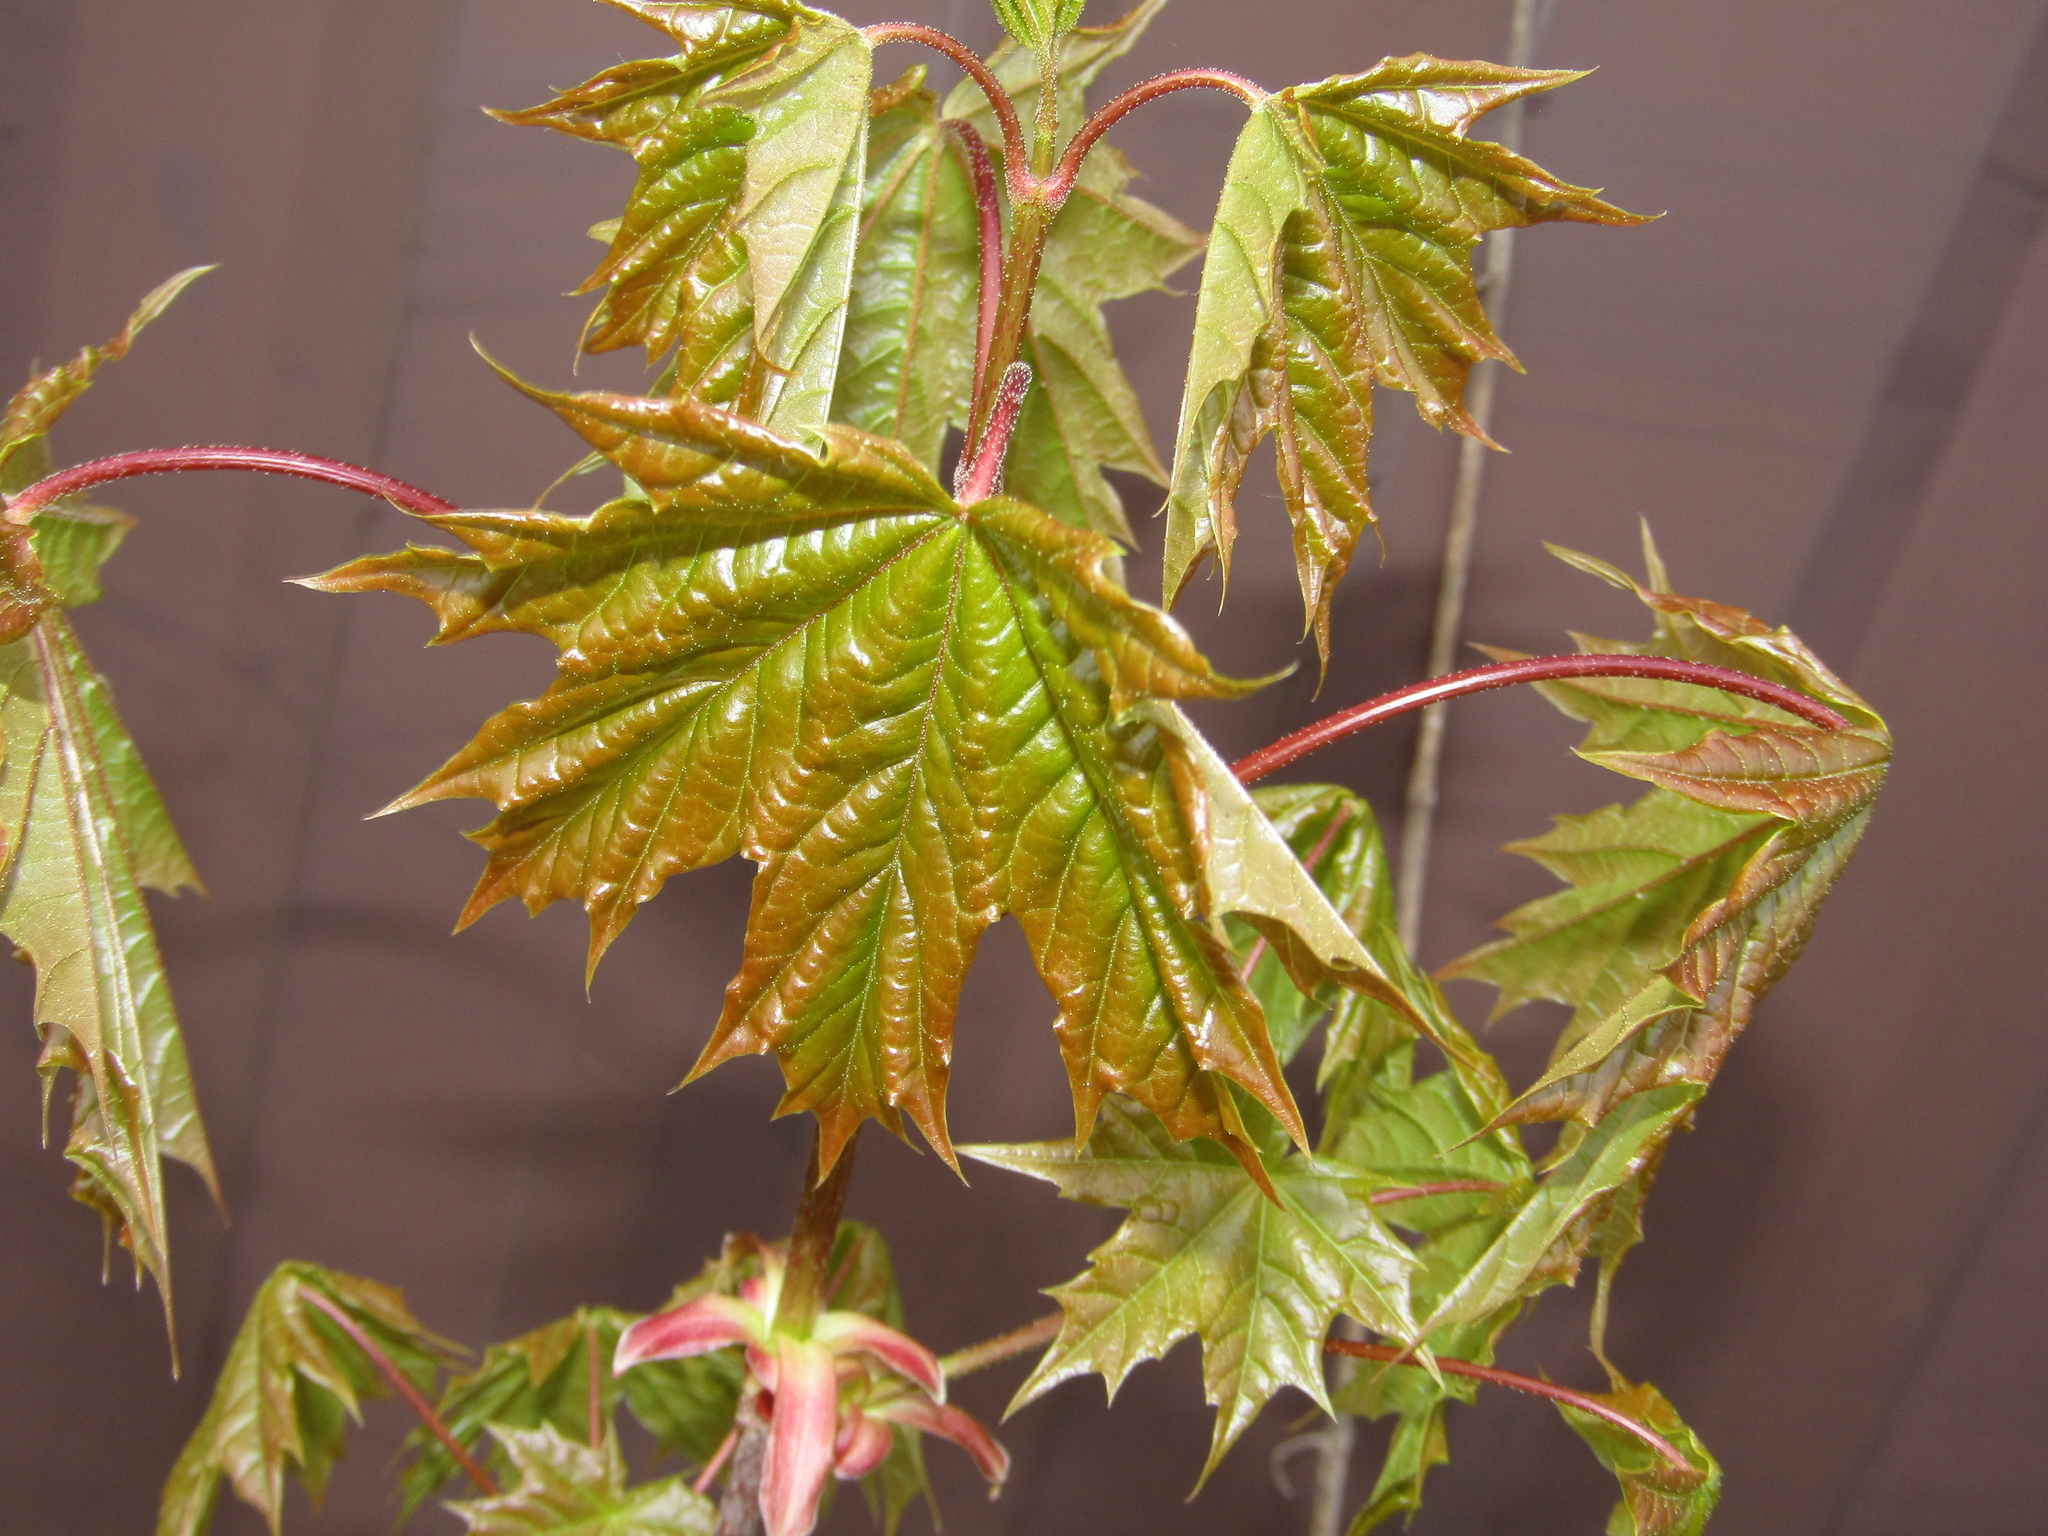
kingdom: Plantae
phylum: Tracheophyta
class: Magnoliopsida
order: Sapindales
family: Sapindaceae
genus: Acer
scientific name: Acer platanoides
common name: Norway maple
